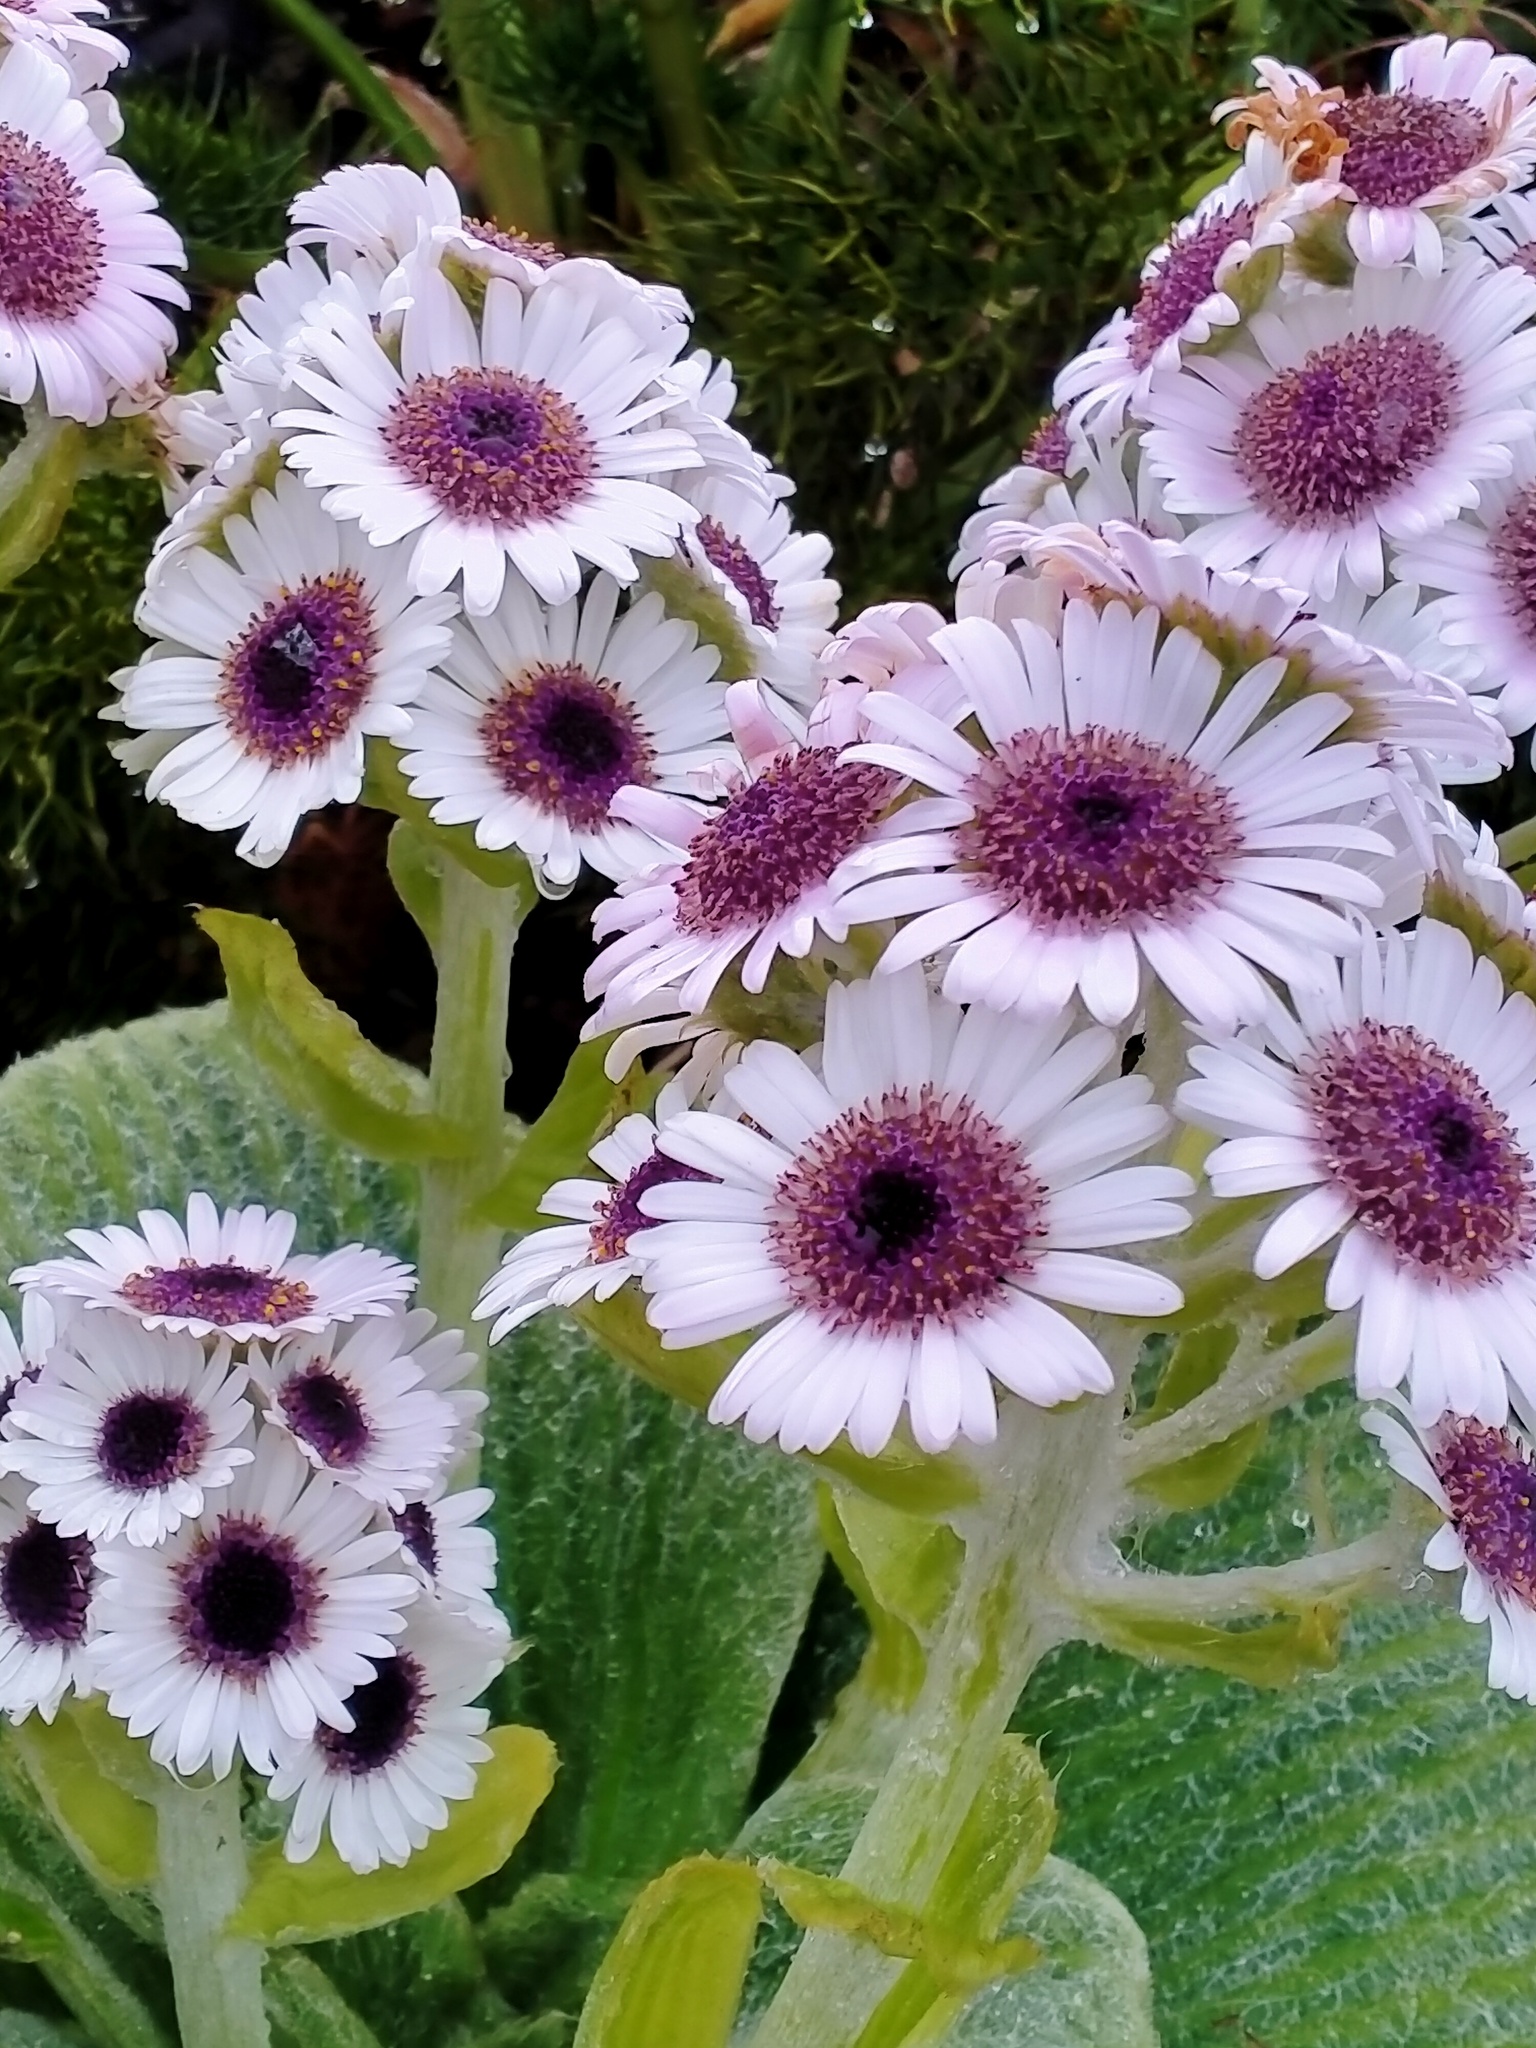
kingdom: Plantae
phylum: Tracheophyta
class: Magnoliopsida
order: Asterales
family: Asteraceae
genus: Pleurophyllum
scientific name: Pleurophyllum speciosum
